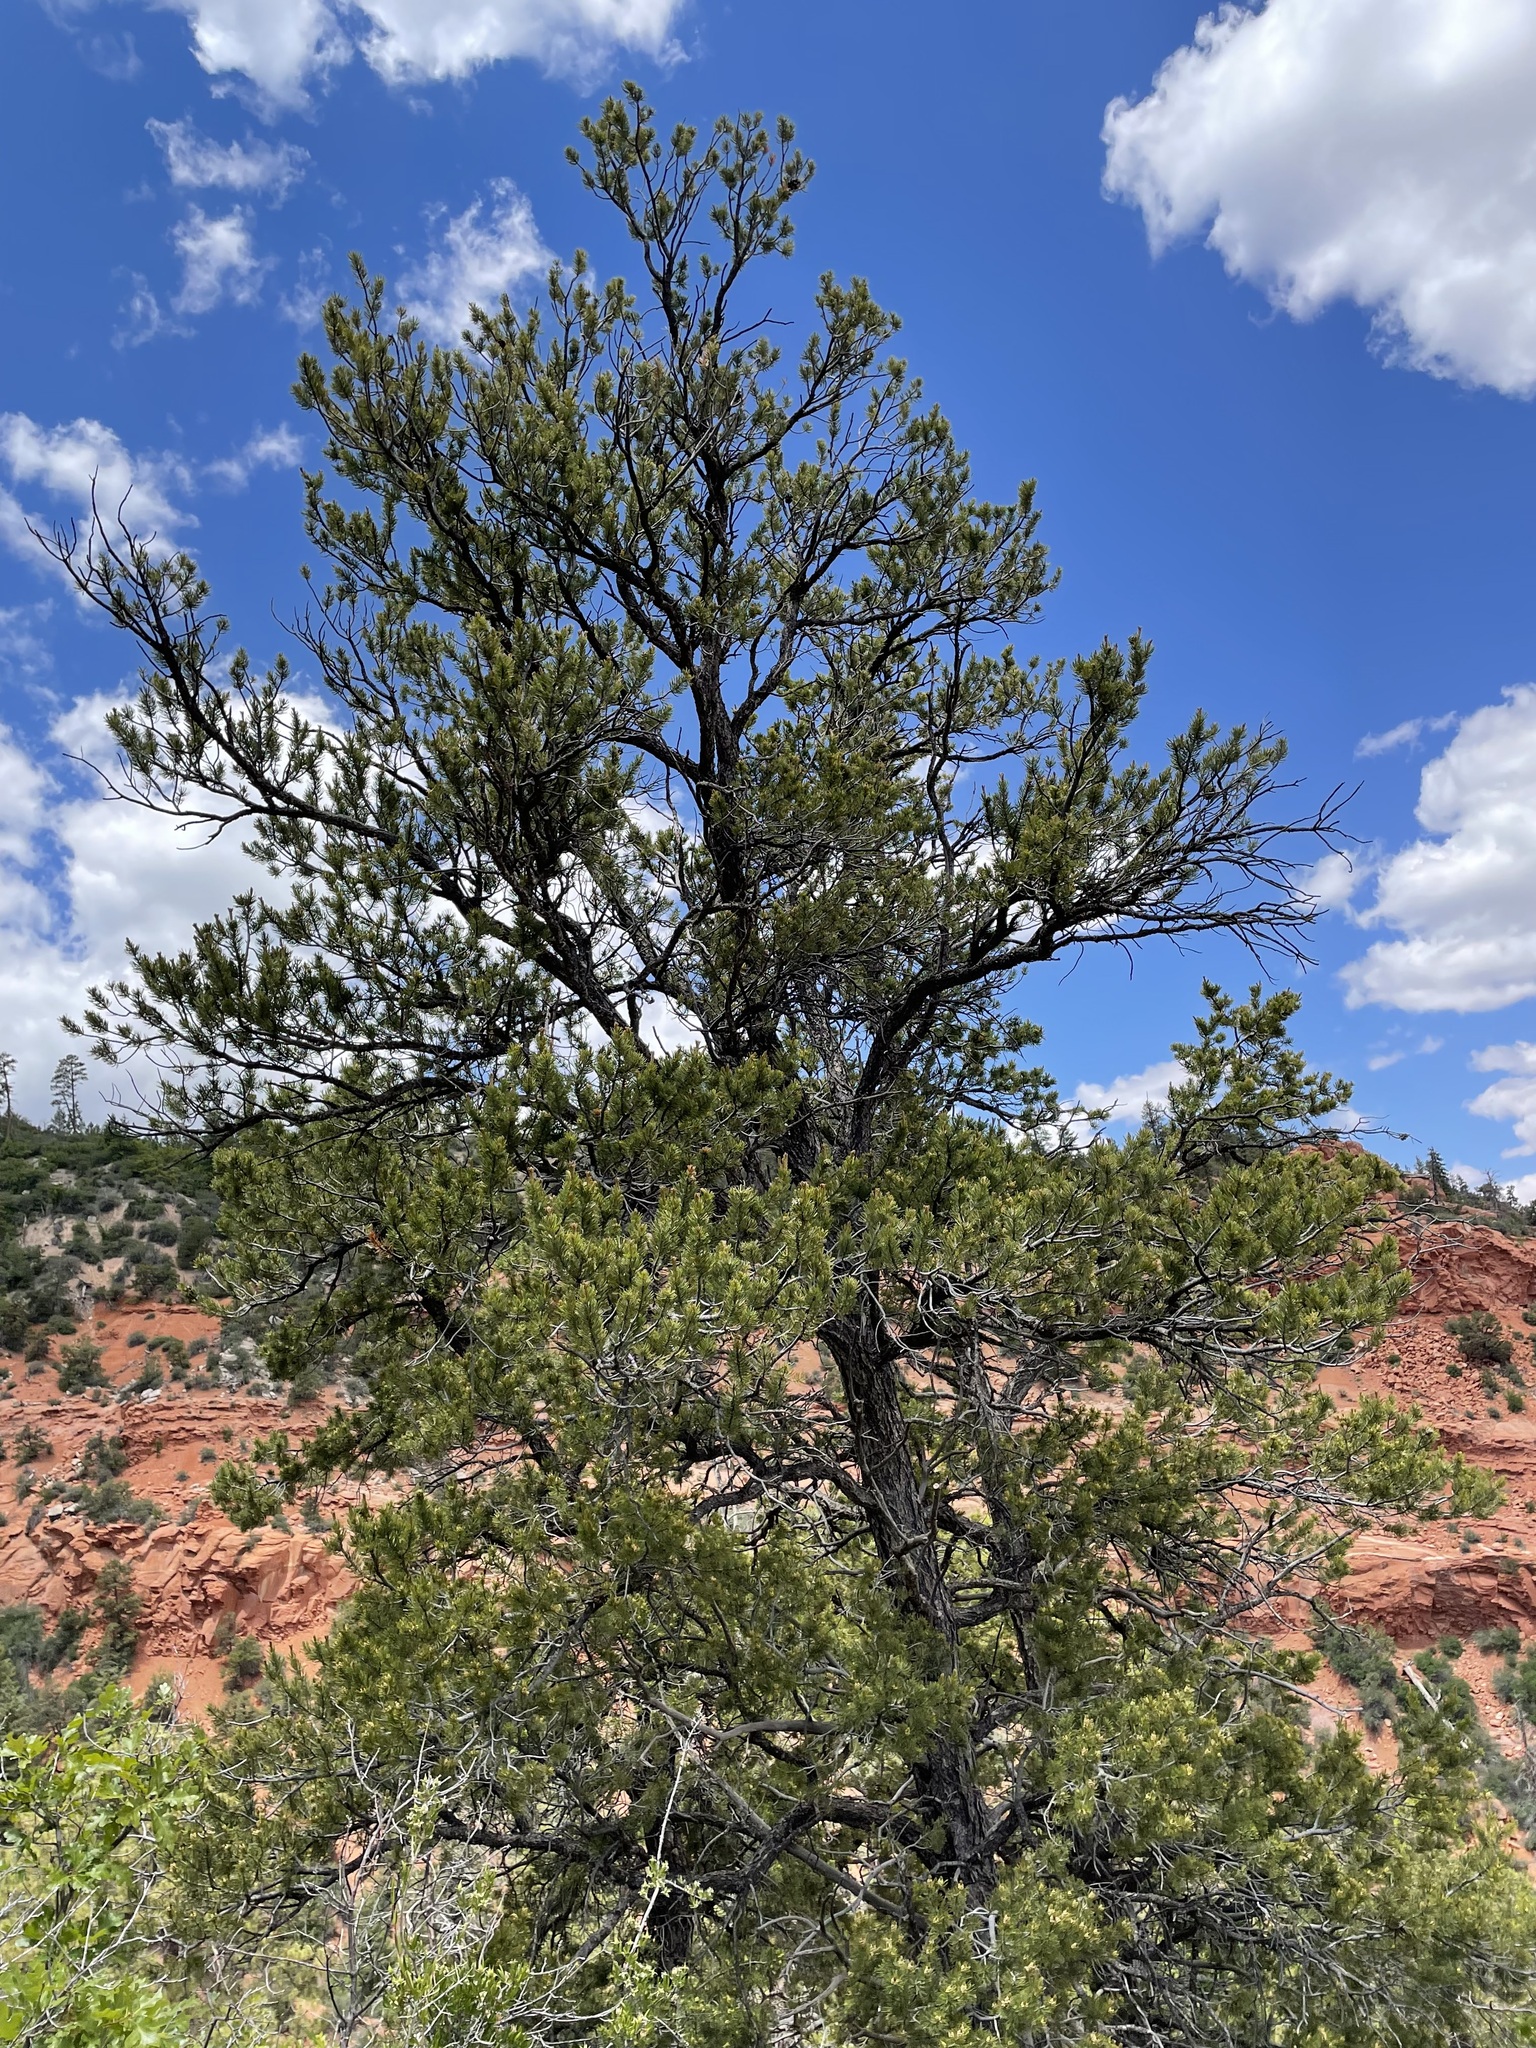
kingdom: Plantae
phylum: Tracheophyta
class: Pinopsida
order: Pinales
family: Pinaceae
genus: Pinus
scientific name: Pinus edulis
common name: Colorado pinyon
